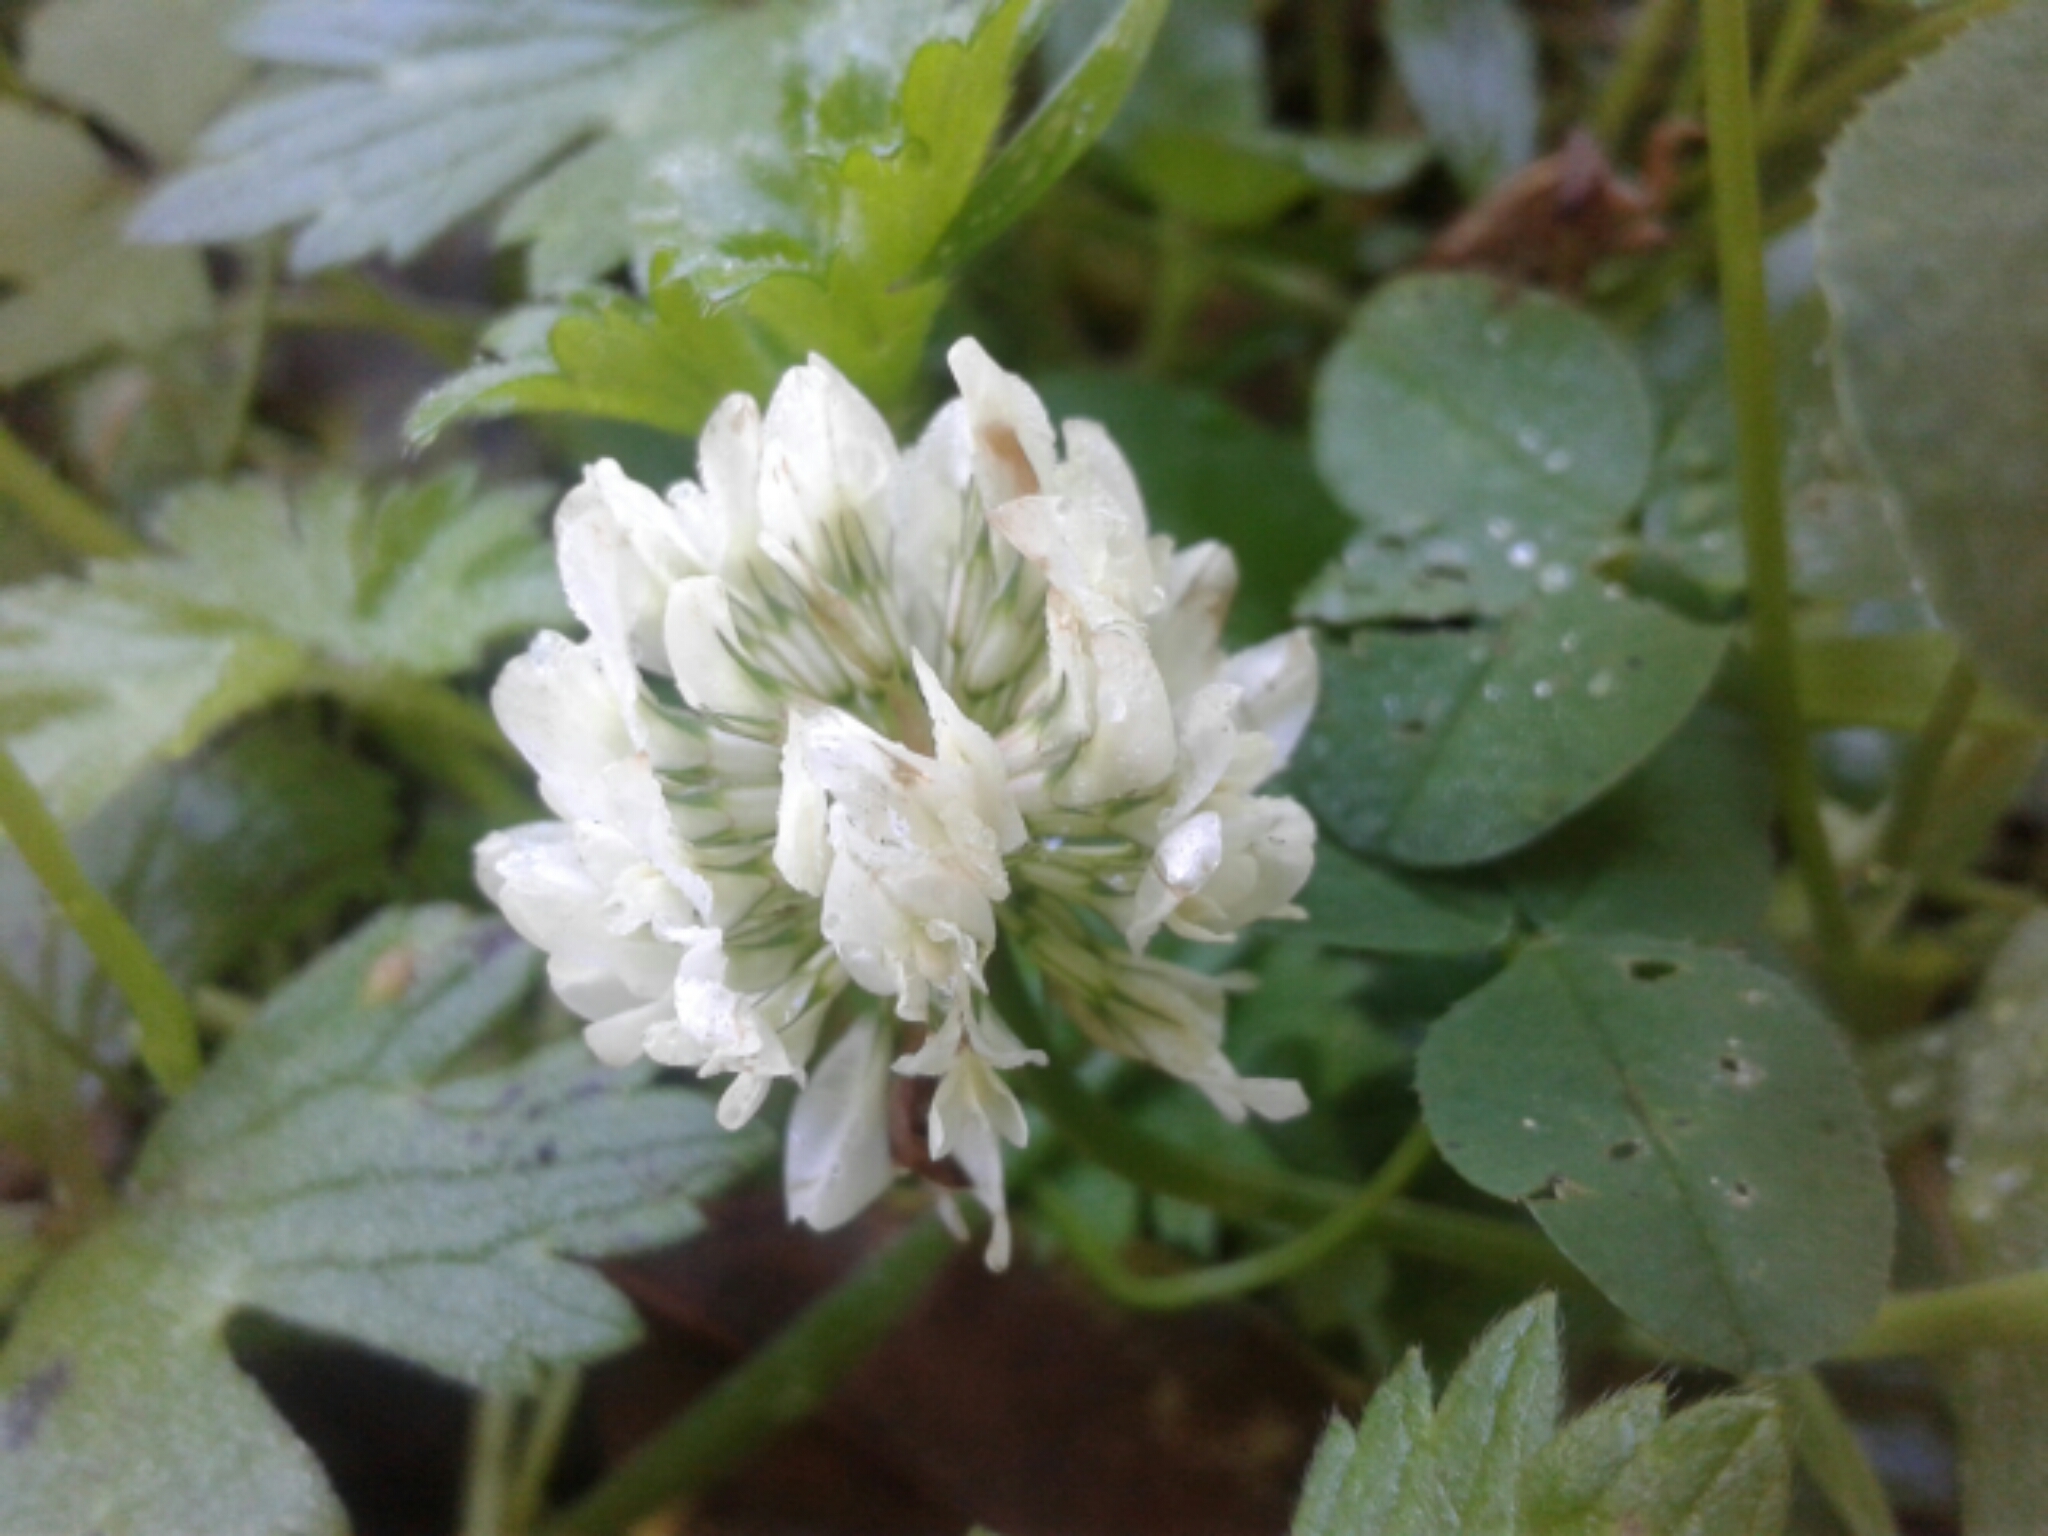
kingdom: Plantae
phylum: Tracheophyta
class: Magnoliopsida
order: Fabales
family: Fabaceae
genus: Trifolium
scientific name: Trifolium repens
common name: White clover
